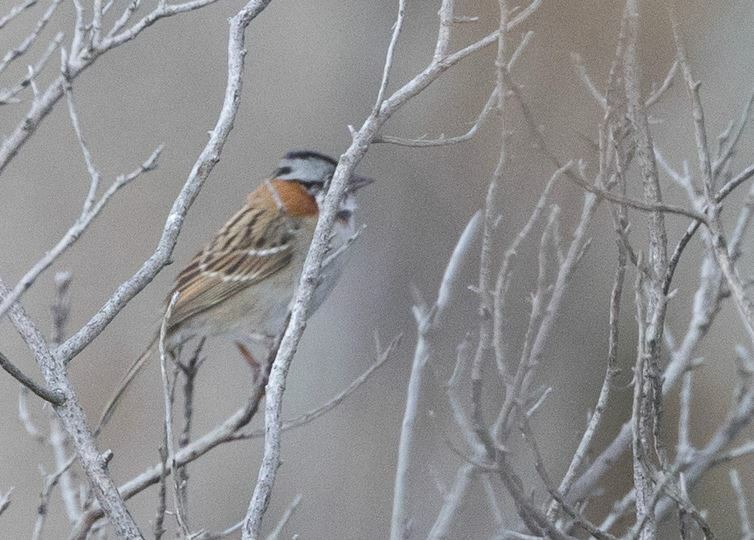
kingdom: Animalia
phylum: Chordata
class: Aves
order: Passeriformes
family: Passerellidae
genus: Zonotrichia
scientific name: Zonotrichia capensis
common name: Rufous-collared sparrow
